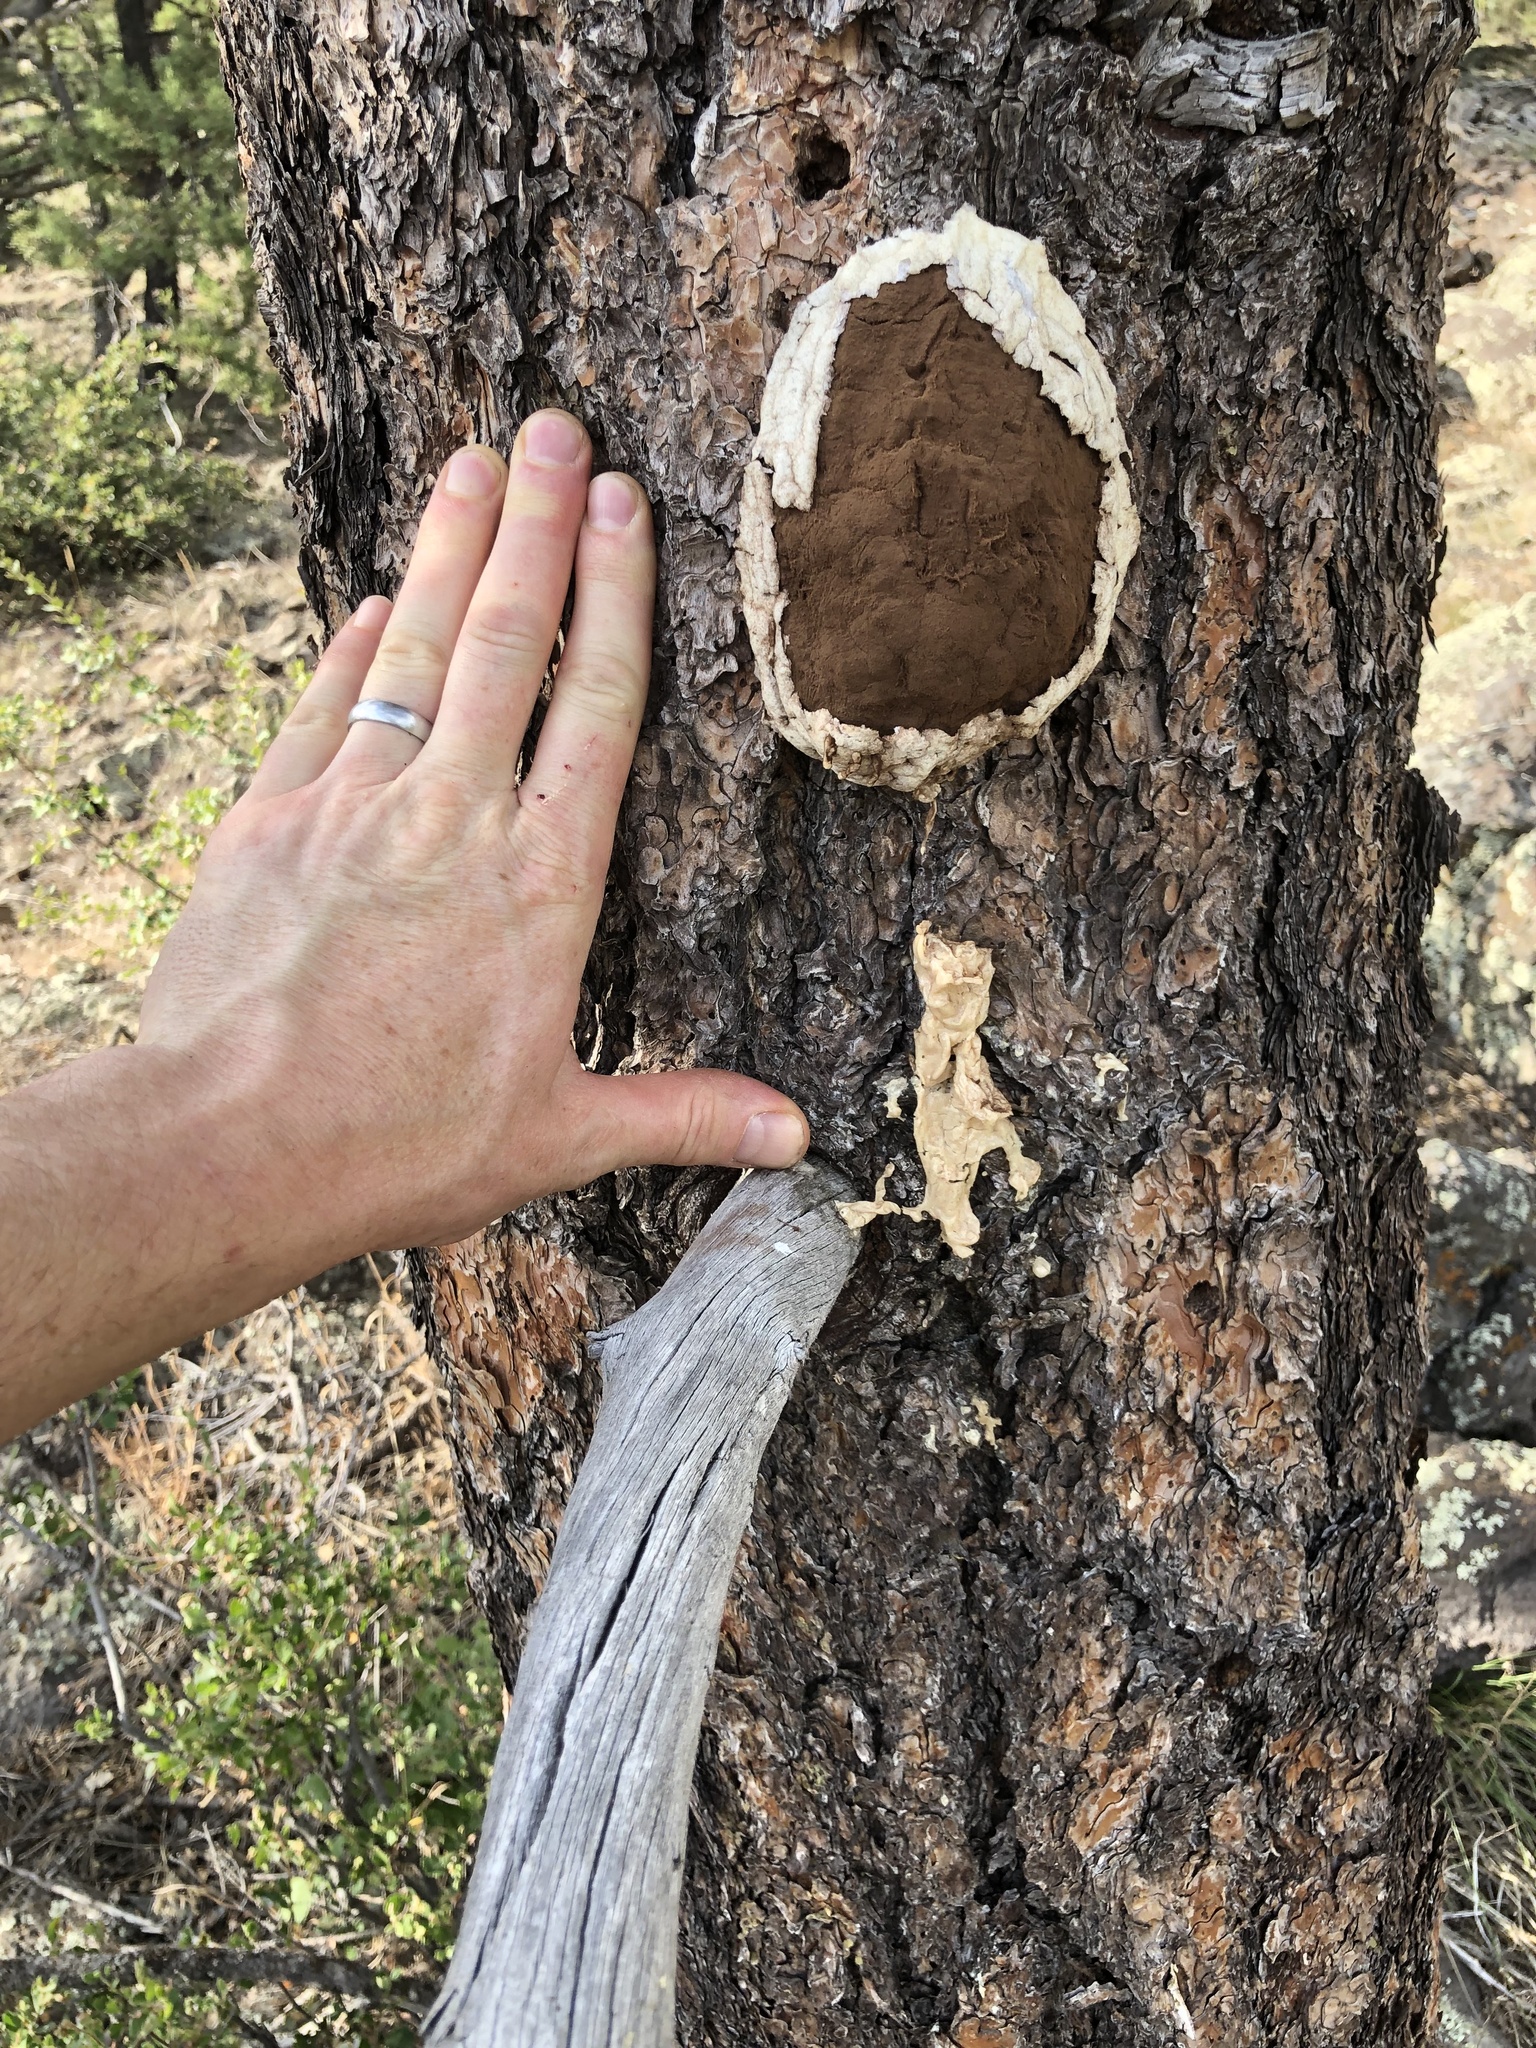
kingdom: Protozoa
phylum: Mycetozoa
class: Myxomycetes
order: Cribrariales
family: Tubiferaceae
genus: Reticularia
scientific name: Reticularia lycoperdon
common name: False puffball
